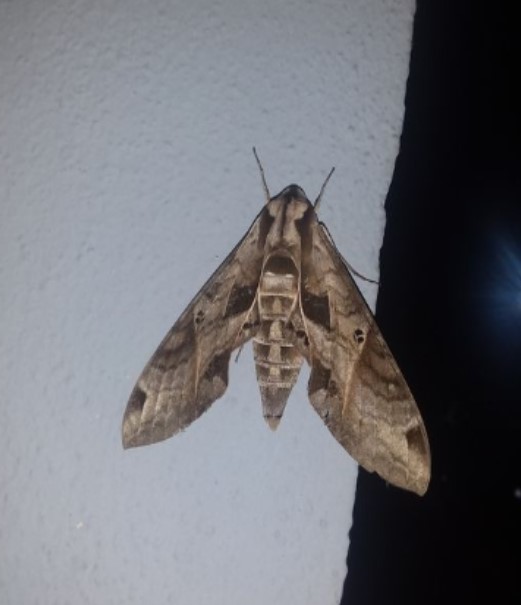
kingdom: Animalia
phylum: Arthropoda
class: Insecta
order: Lepidoptera
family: Sphingidae
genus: Eumorpha
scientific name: Eumorpha analis
